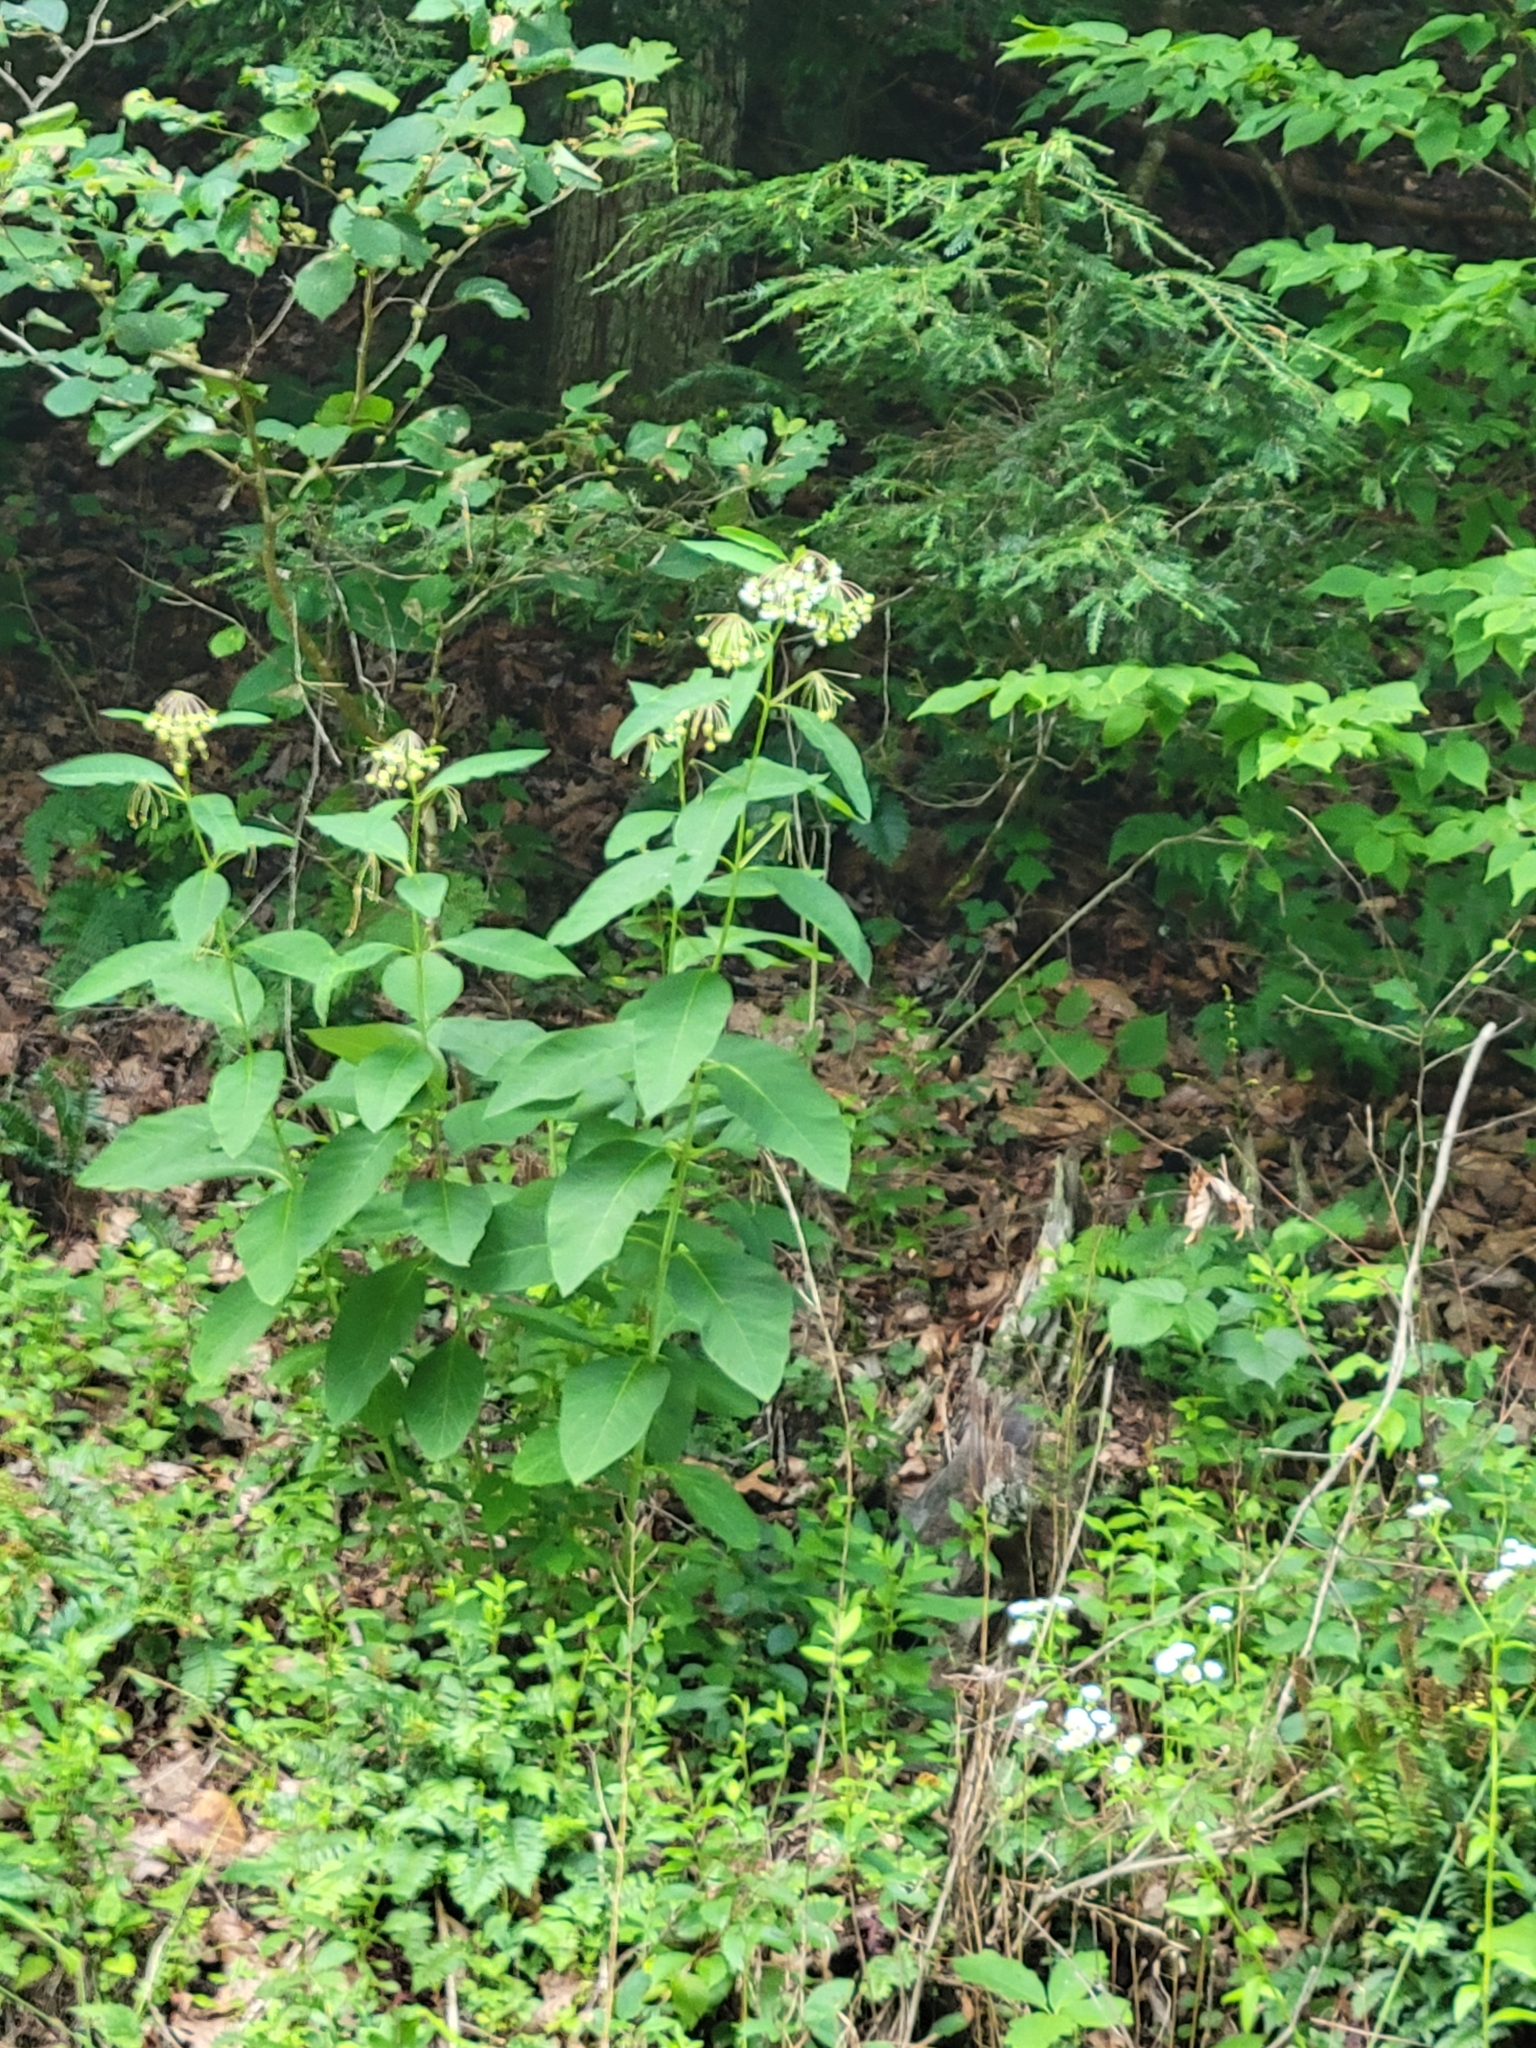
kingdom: Plantae
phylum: Tracheophyta
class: Magnoliopsida
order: Gentianales
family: Apocynaceae
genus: Asclepias
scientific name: Asclepias exaltata
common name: Poke milkweed
